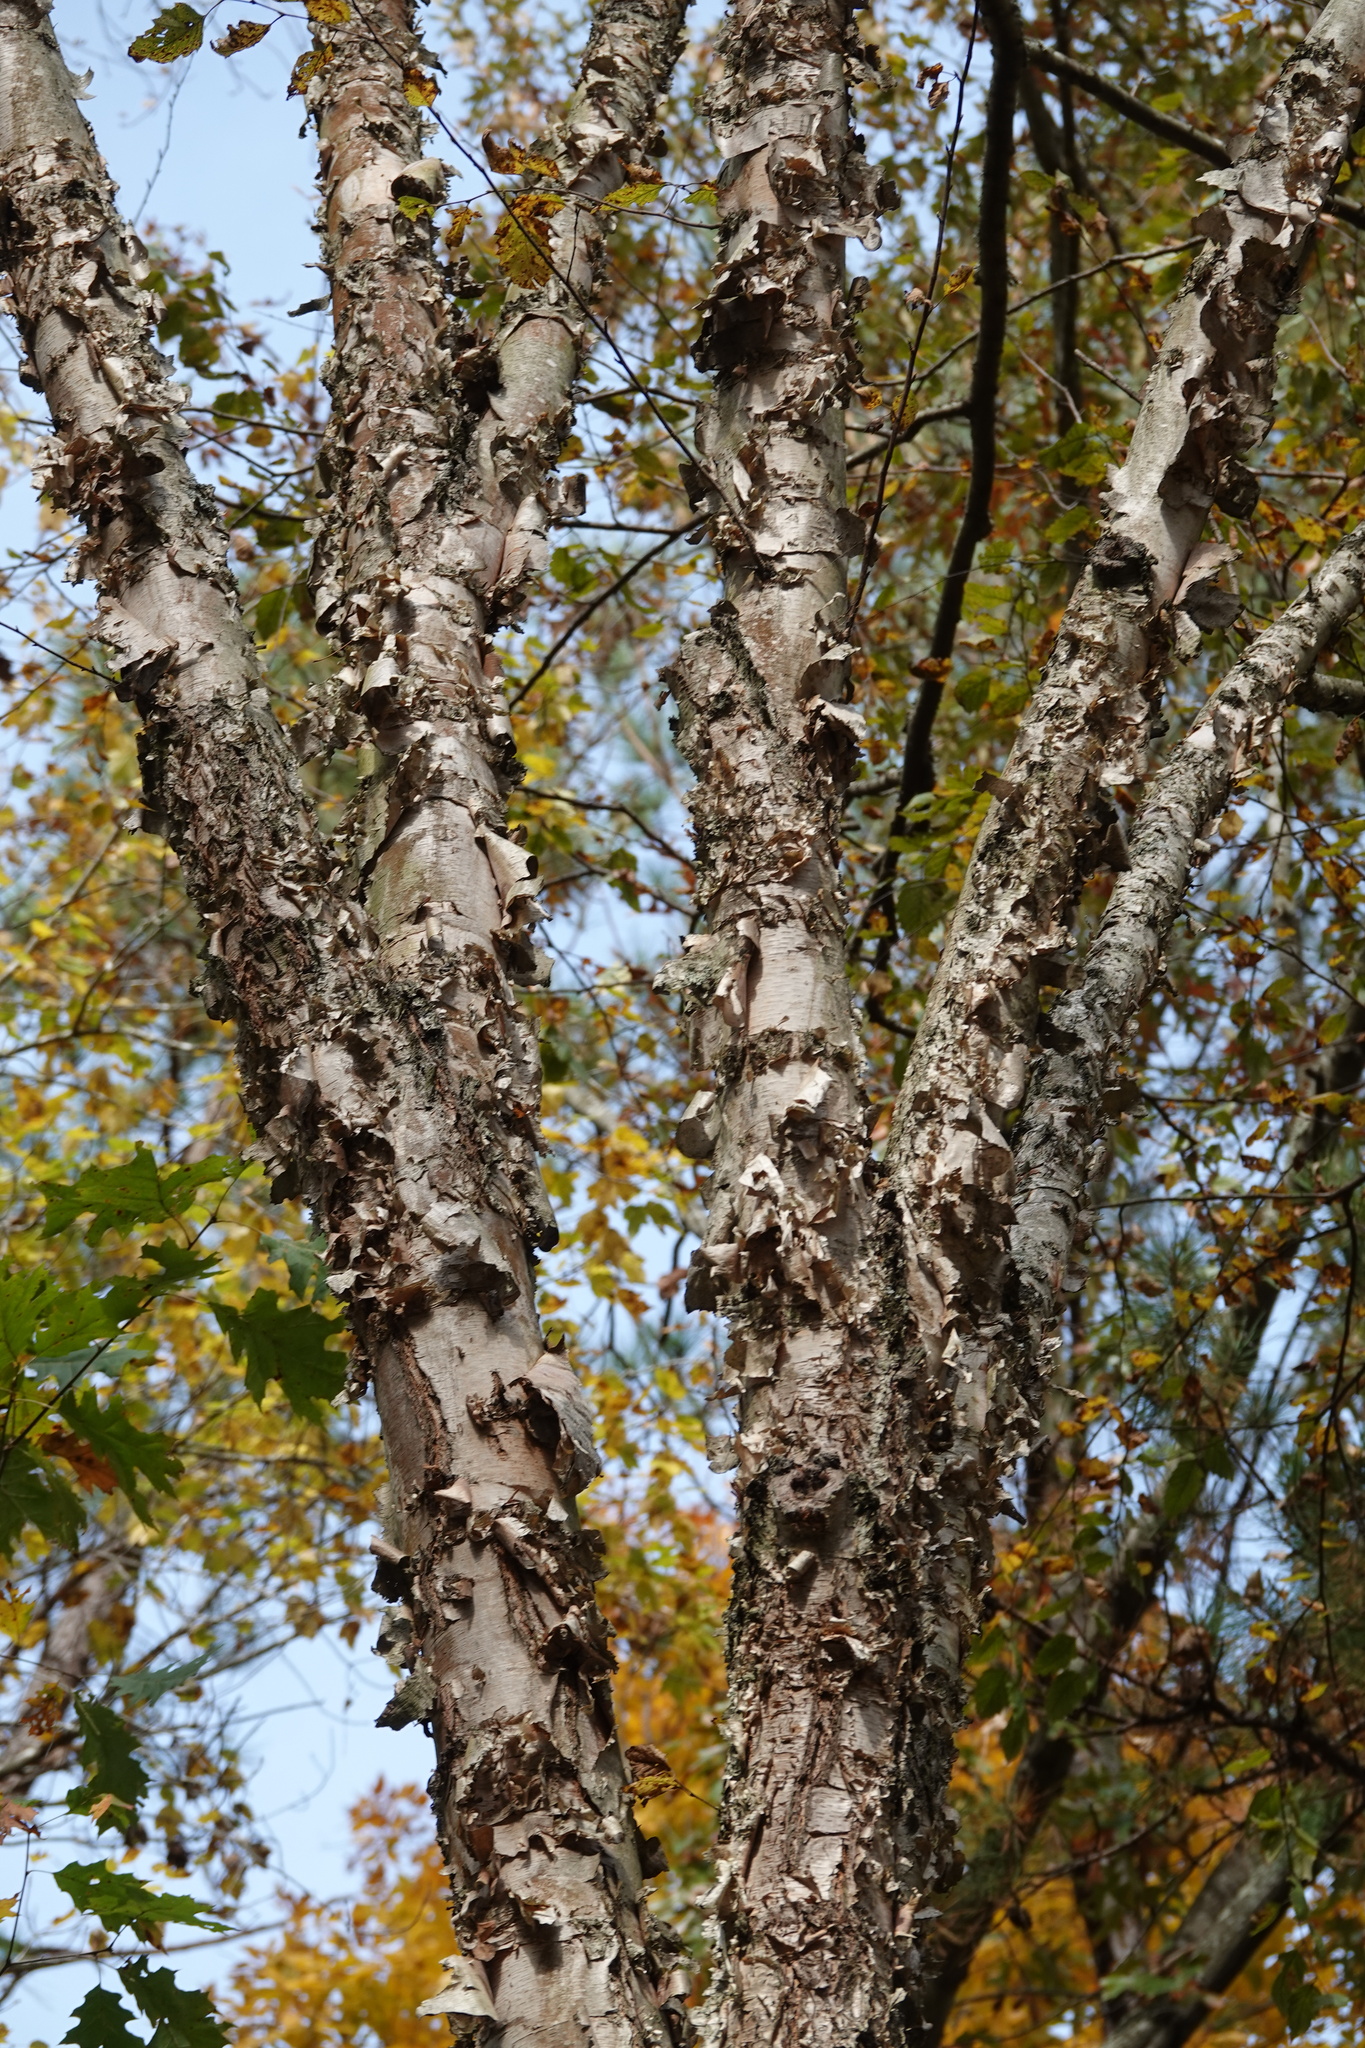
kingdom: Plantae
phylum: Tracheophyta
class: Magnoliopsida
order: Fagales
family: Betulaceae
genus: Betula
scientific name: Betula nigra
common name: Black birch
